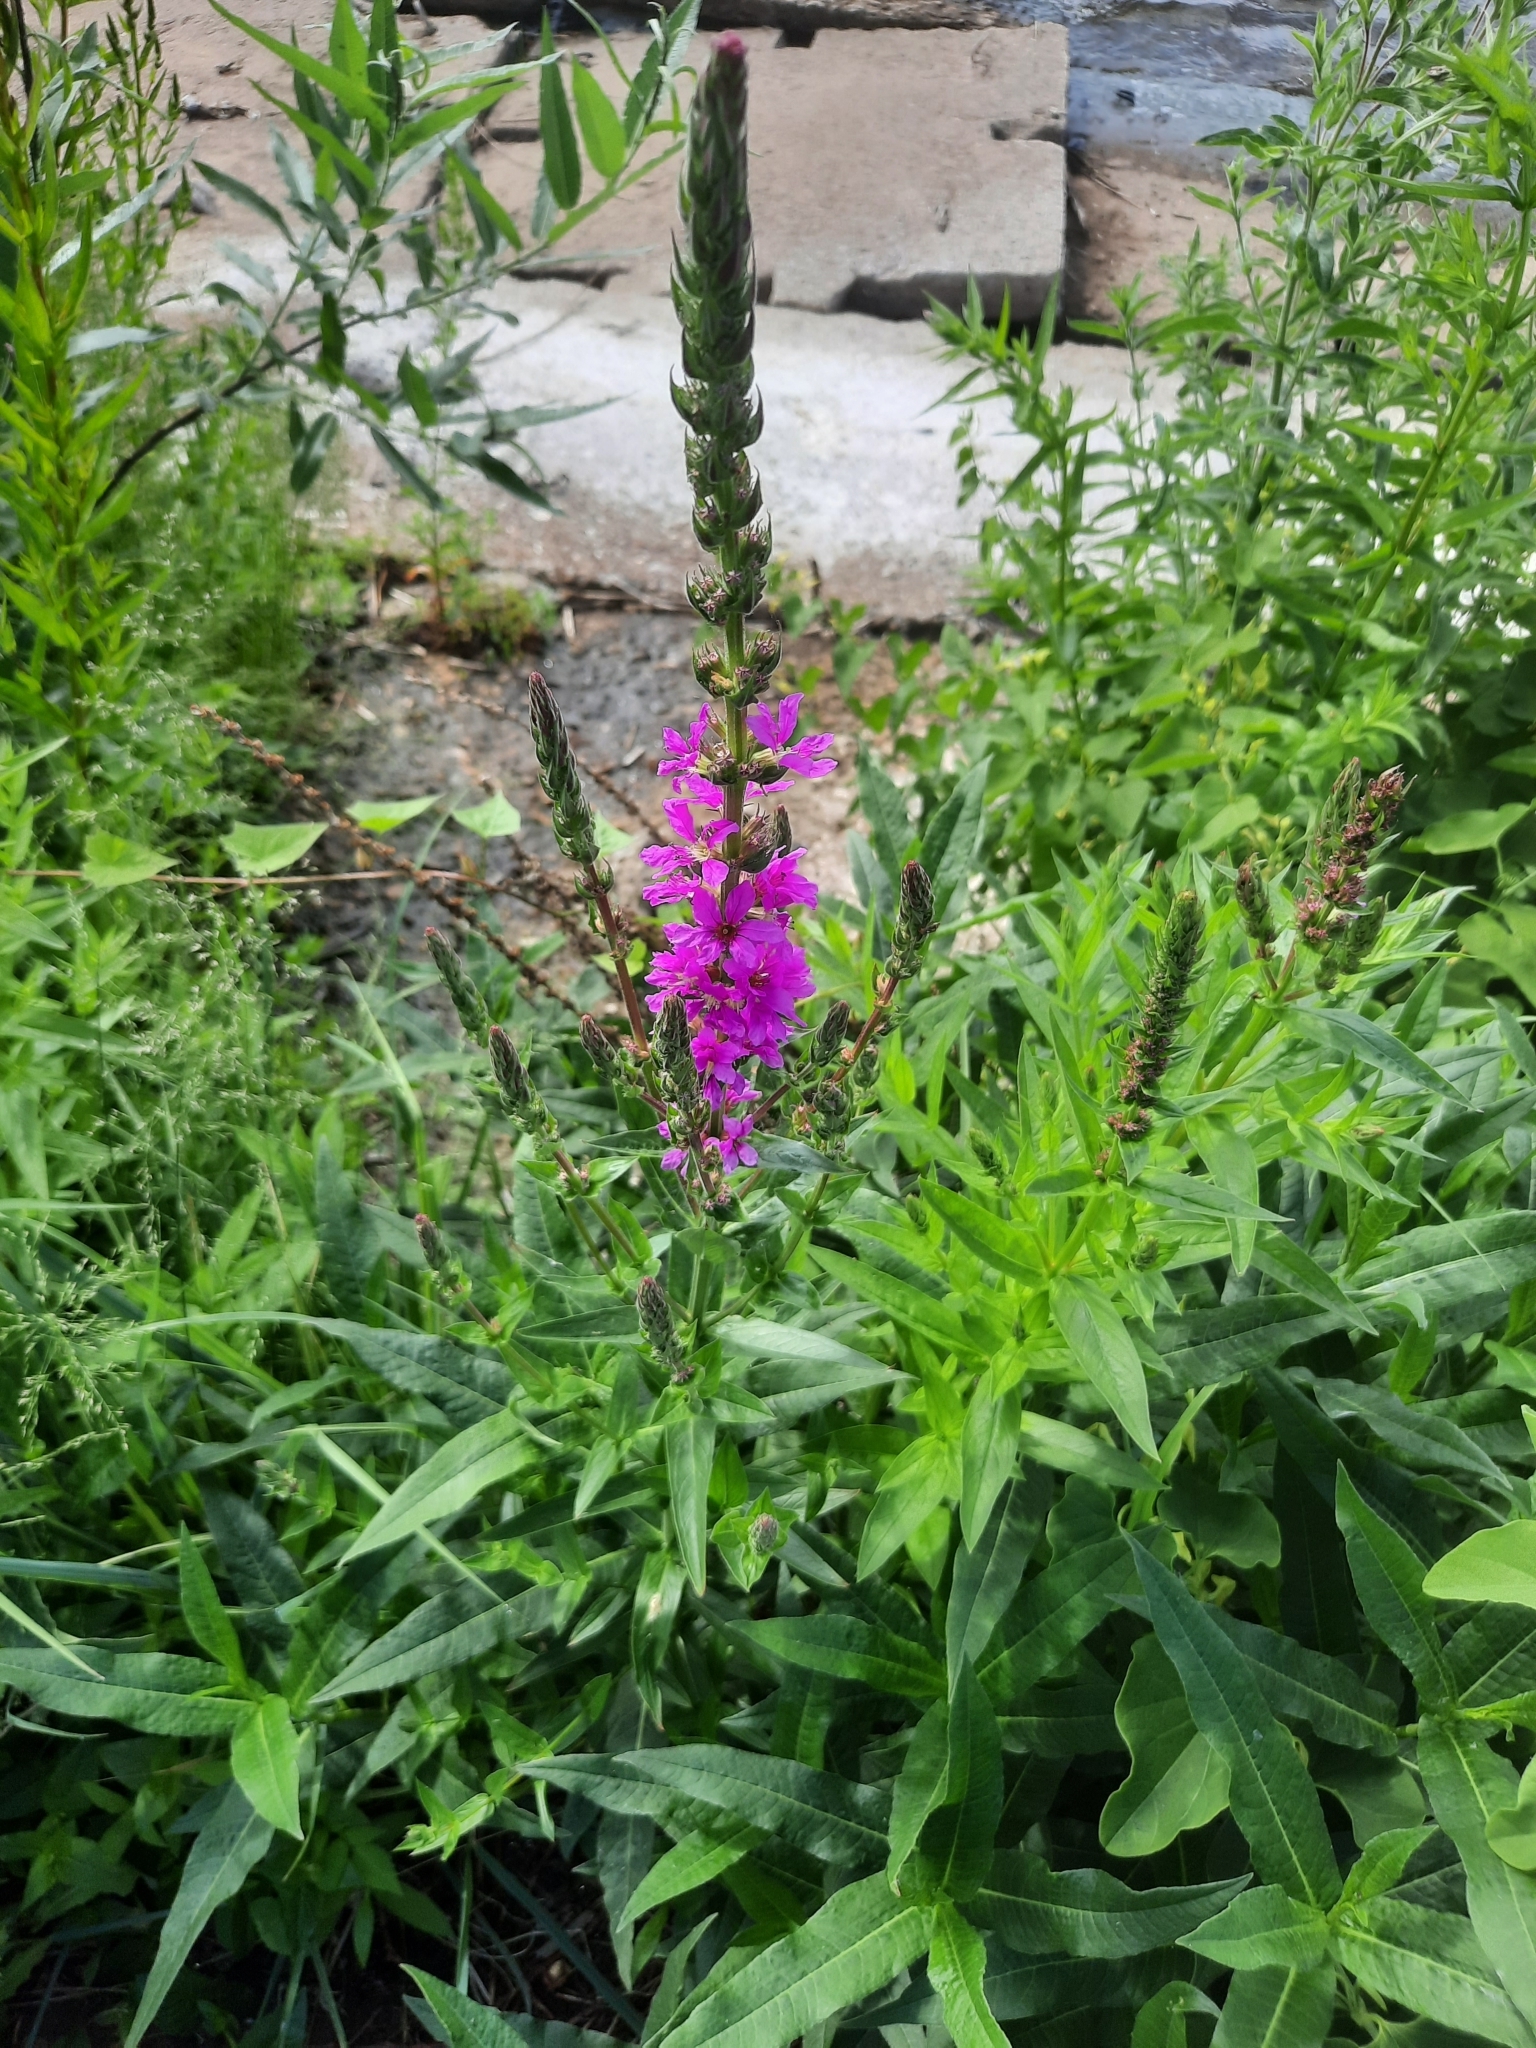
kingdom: Plantae
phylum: Tracheophyta
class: Magnoliopsida
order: Myrtales
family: Lythraceae
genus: Lythrum
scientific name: Lythrum salicaria
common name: Purple loosestrife
